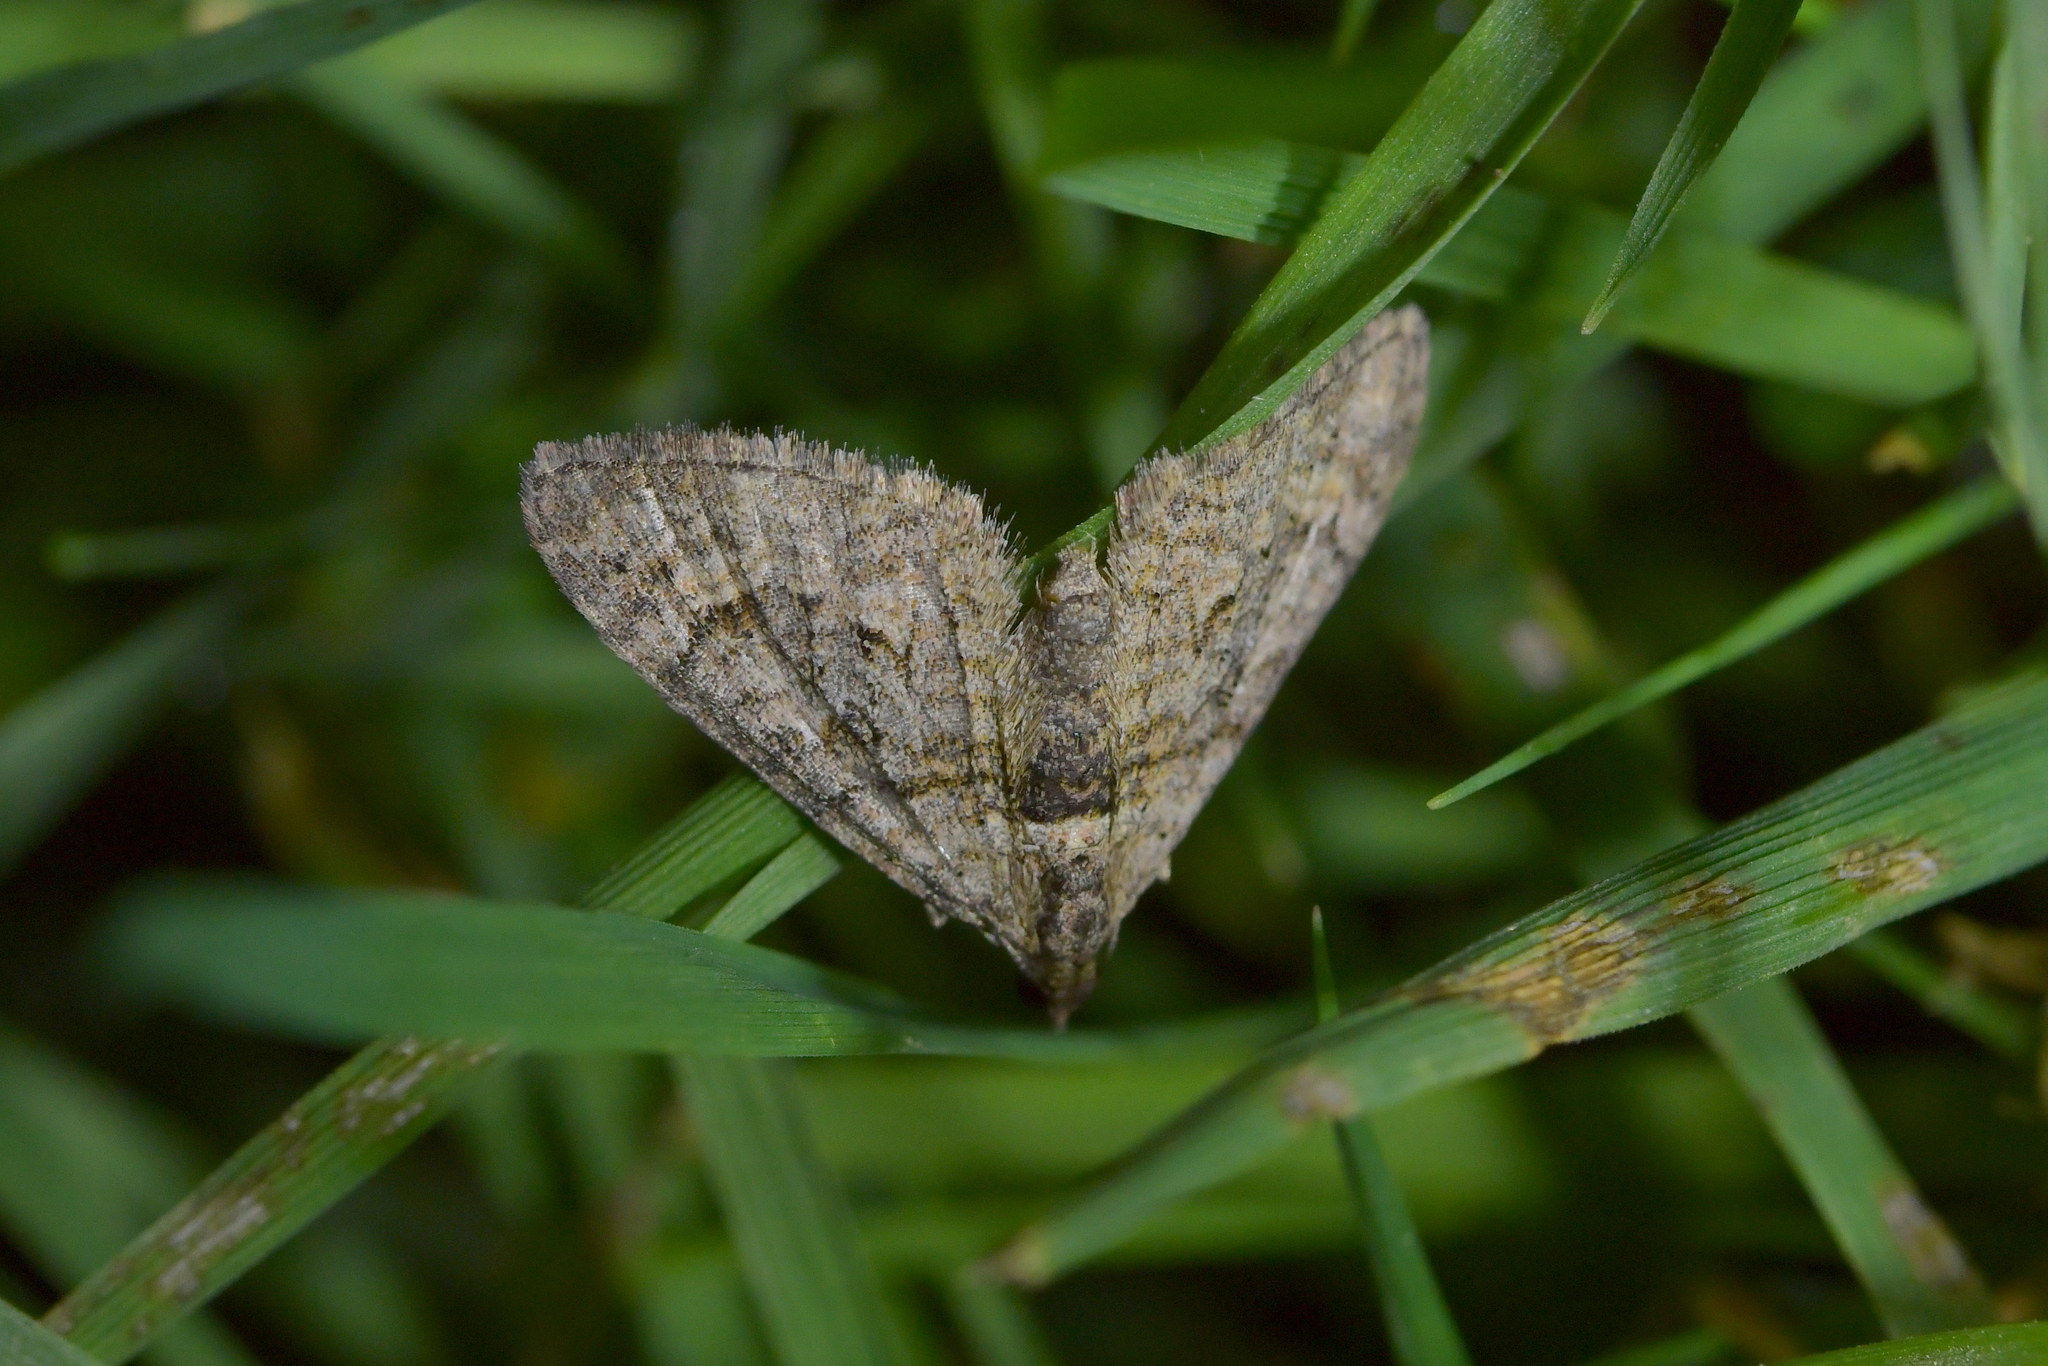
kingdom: Animalia
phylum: Arthropoda
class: Insecta
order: Lepidoptera
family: Geometridae
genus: Phrissogonus
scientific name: Phrissogonus laticostata
